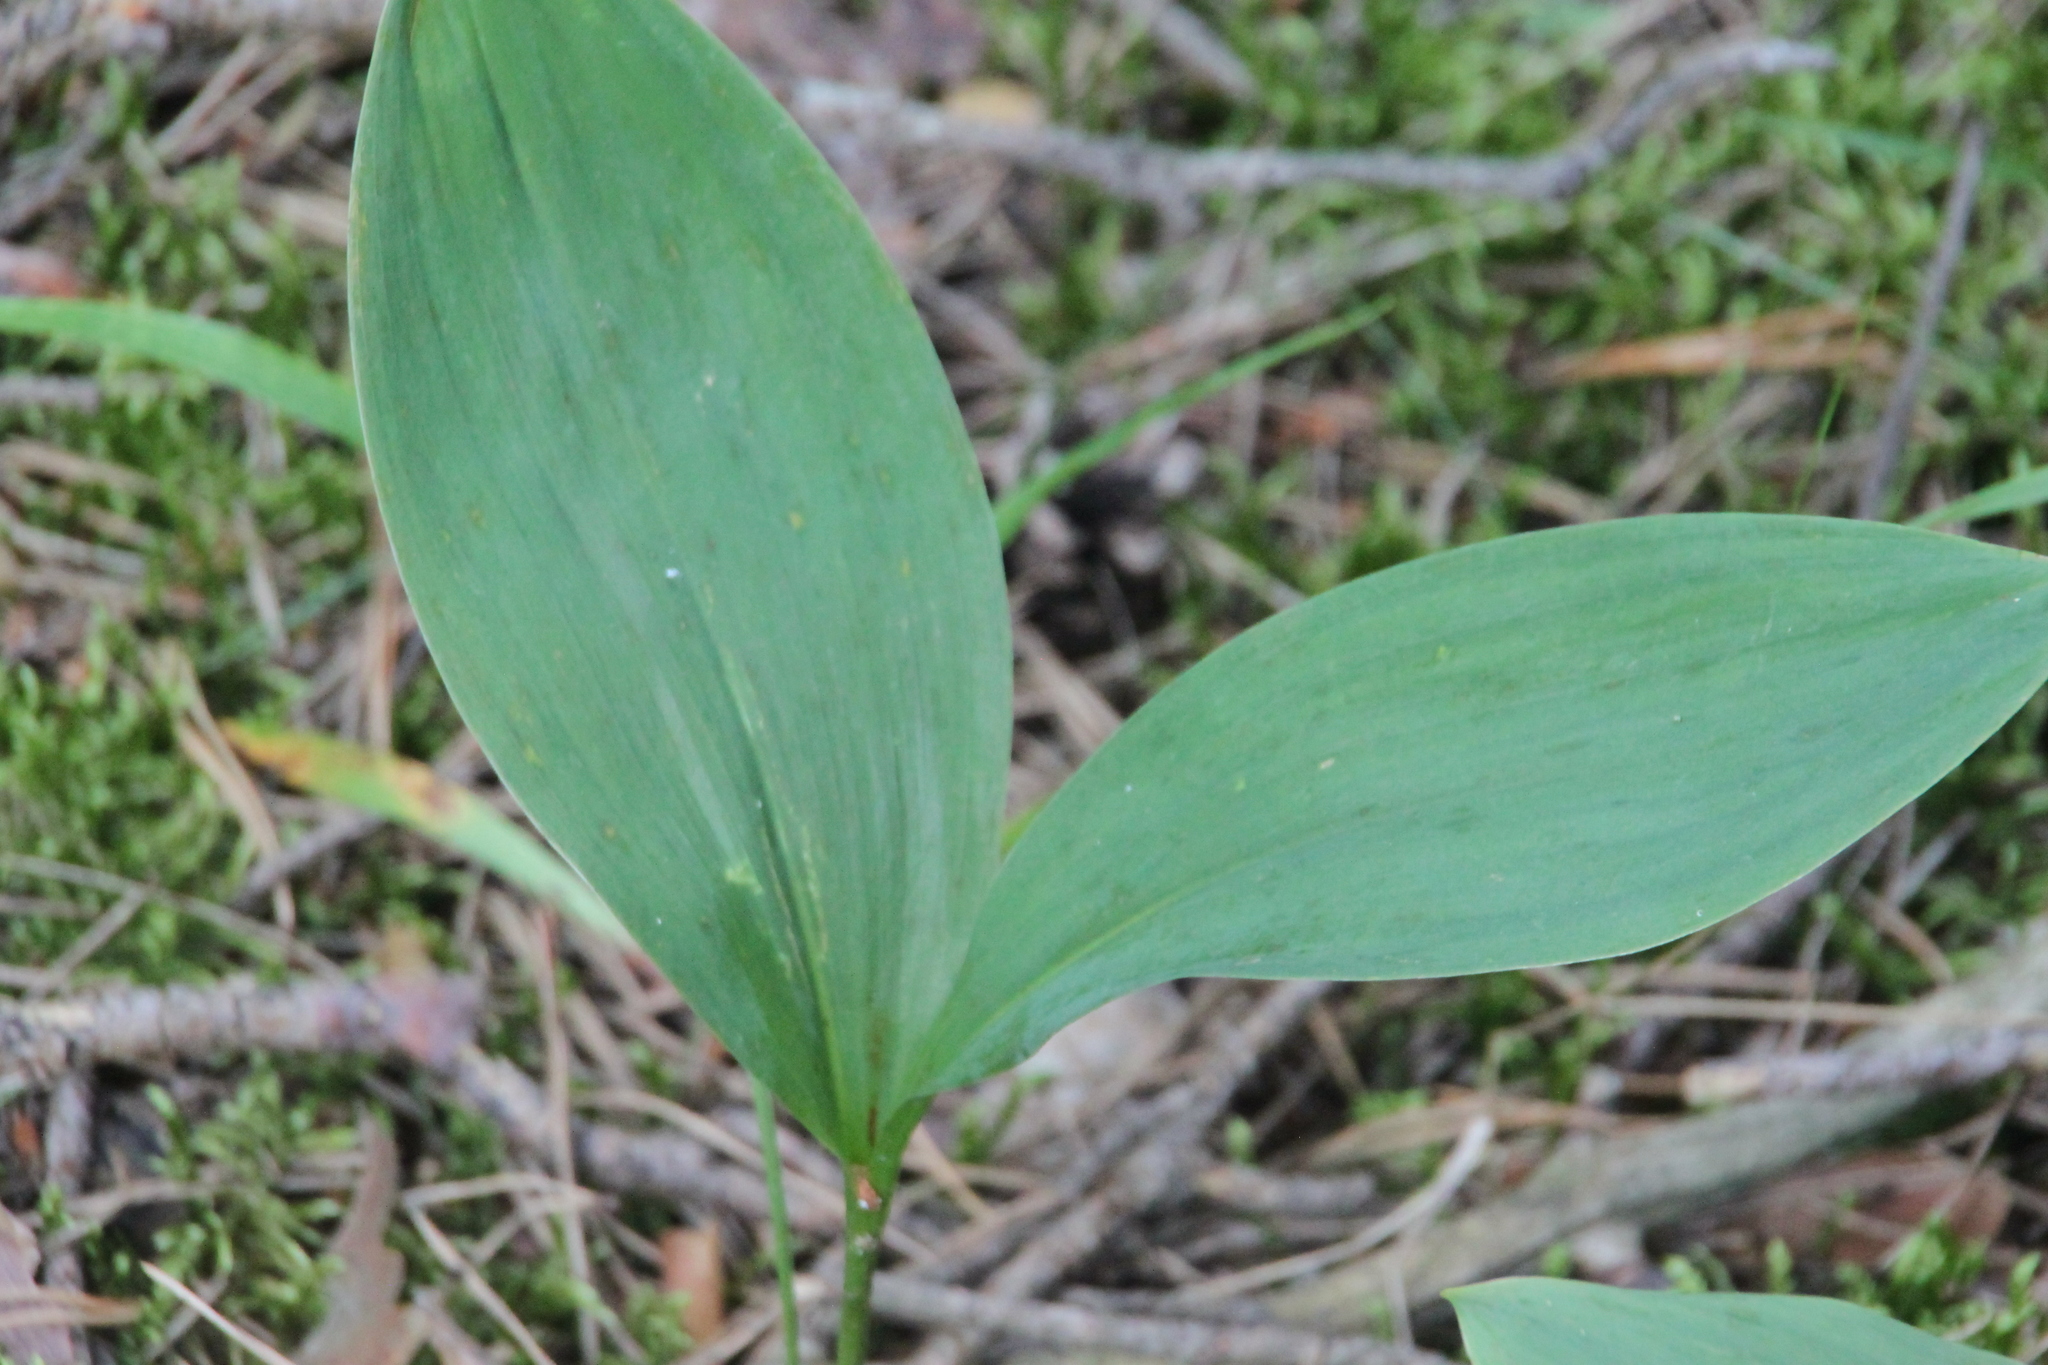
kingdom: Plantae
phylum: Tracheophyta
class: Liliopsida
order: Asparagales
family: Asparagaceae
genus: Convallaria
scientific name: Convallaria majalis
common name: Lily-of-the-valley
